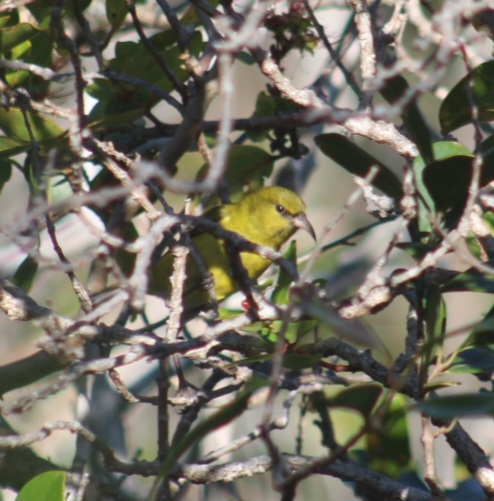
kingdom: Animalia
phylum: Chordata
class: Aves
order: Passeriformes
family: Fringillidae
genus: Chlorodrepanis
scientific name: Chlorodrepanis flava
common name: Oahu amakihi
